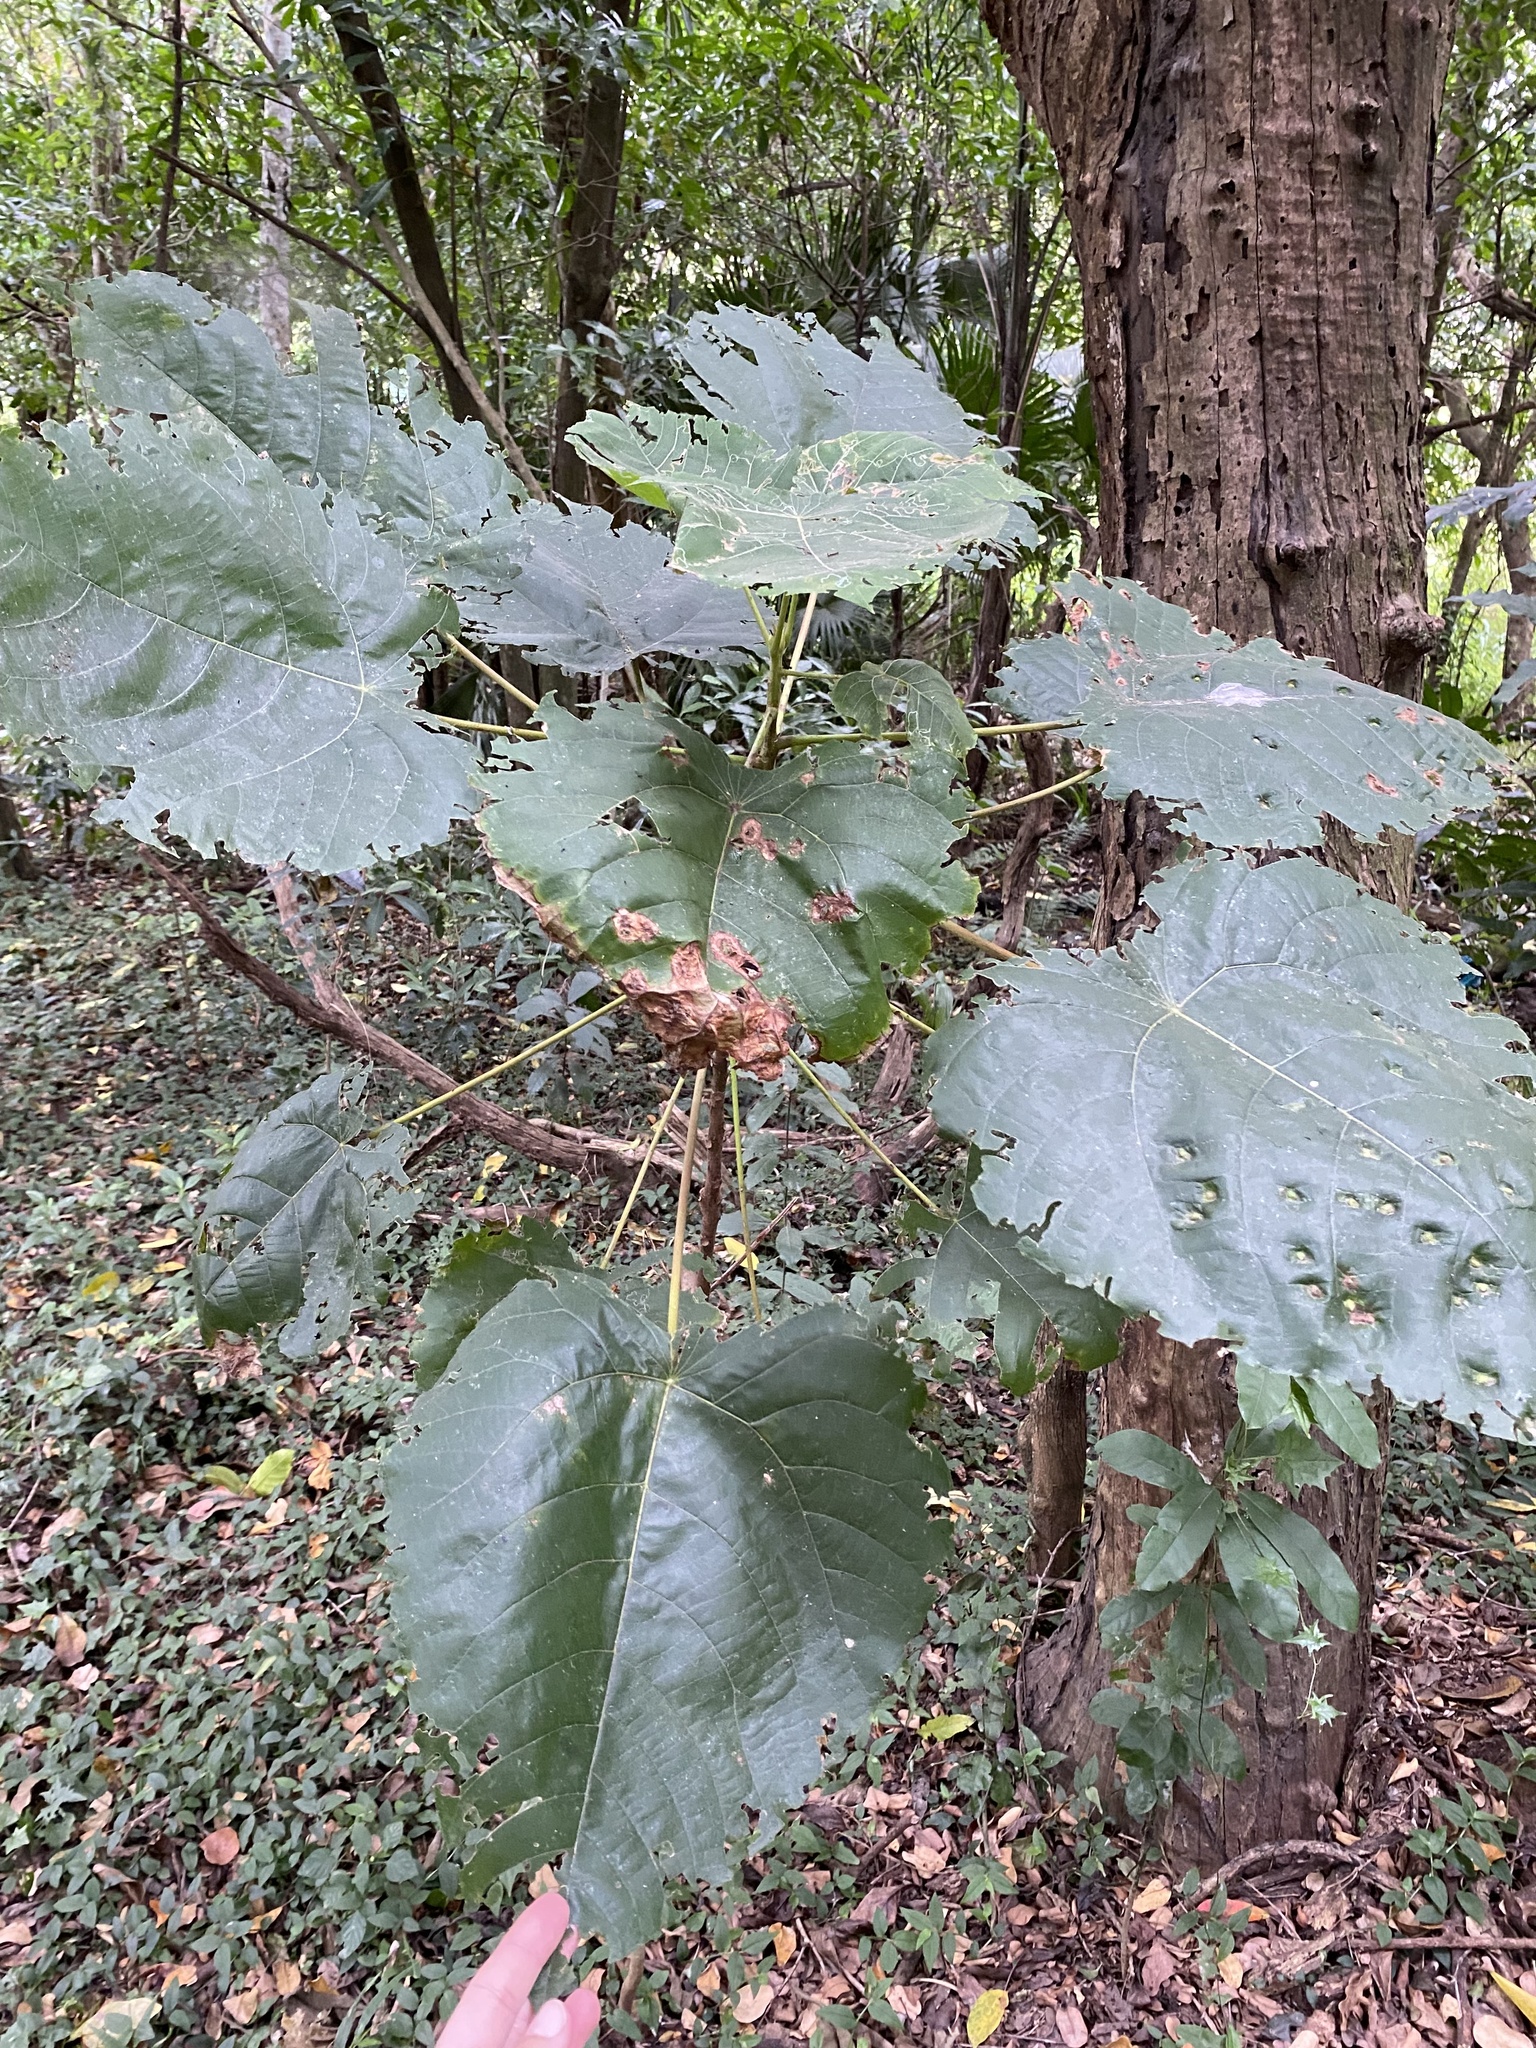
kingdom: Plantae
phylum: Tracheophyta
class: Magnoliopsida
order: Malpighiales
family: Euphorbiaceae
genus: Macaranga
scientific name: Macaranga capensis
